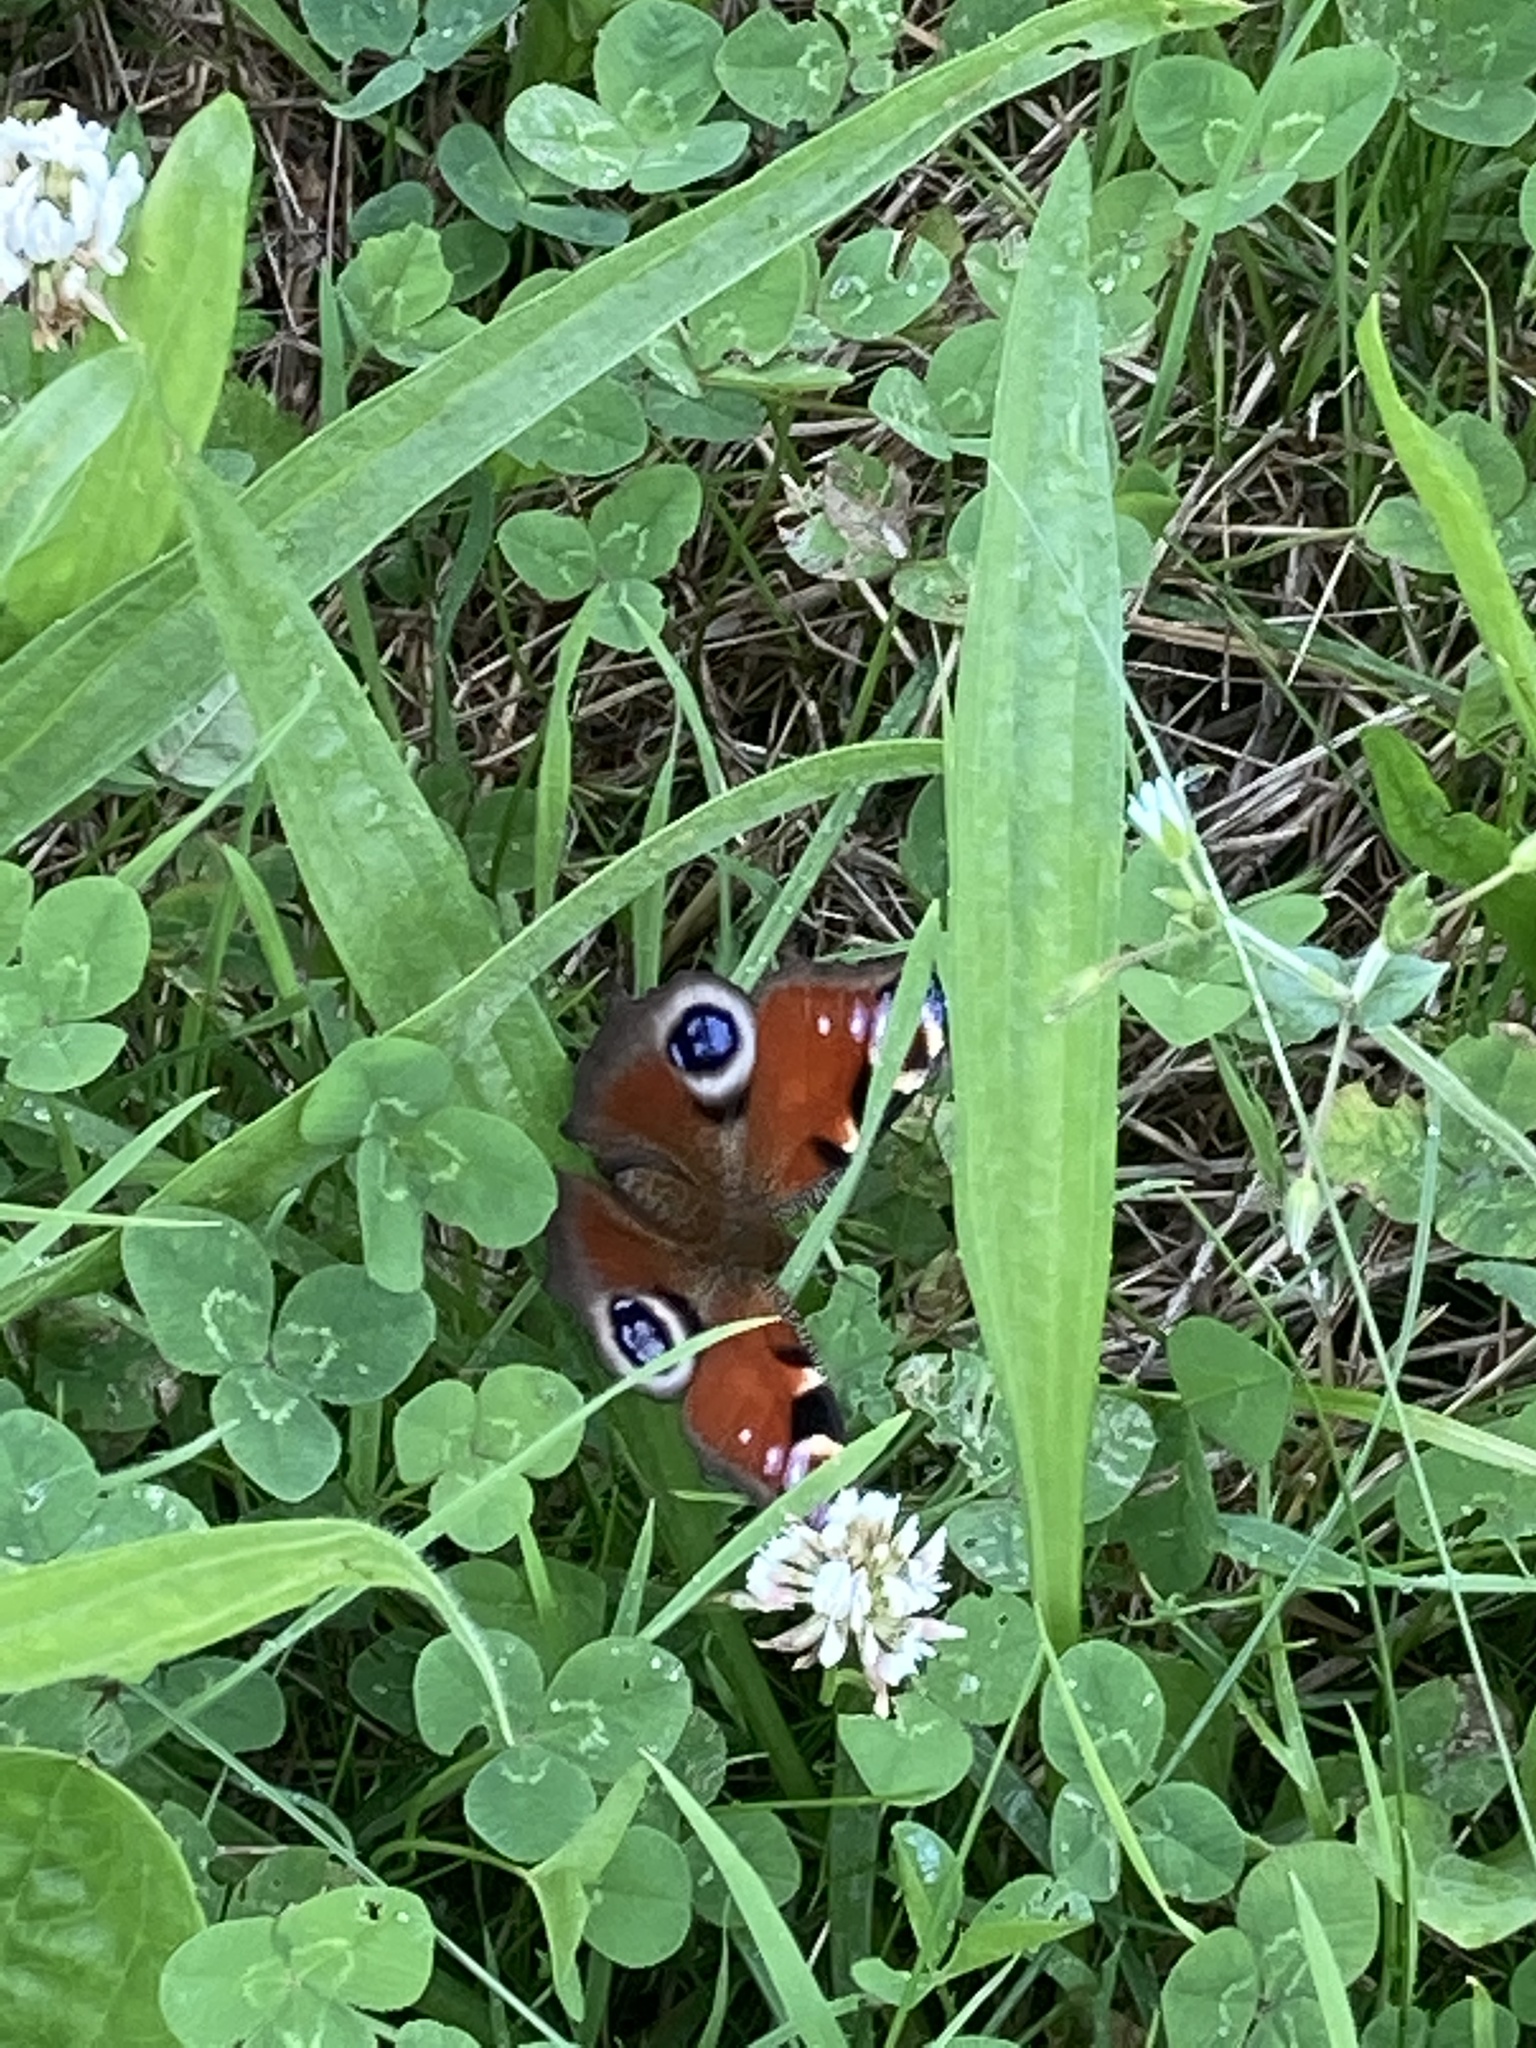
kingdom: Animalia
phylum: Arthropoda
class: Insecta
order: Lepidoptera
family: Nymphalidae
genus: Aglais
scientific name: Aglais io
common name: Peacock
